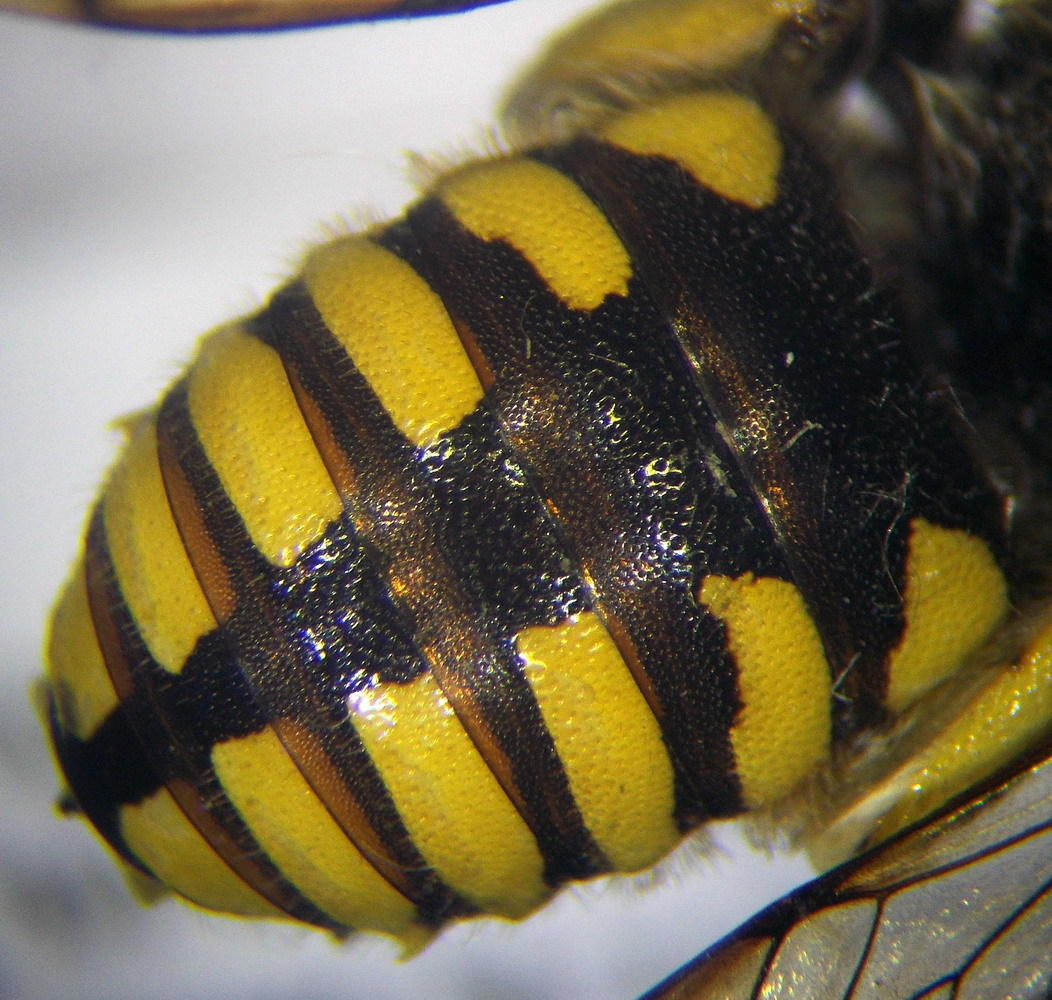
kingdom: Animalia
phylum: Arthropoda
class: Insecta
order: Hymenoptera
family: Megachilidae
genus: Anthidium
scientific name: Anthidium florentinum
